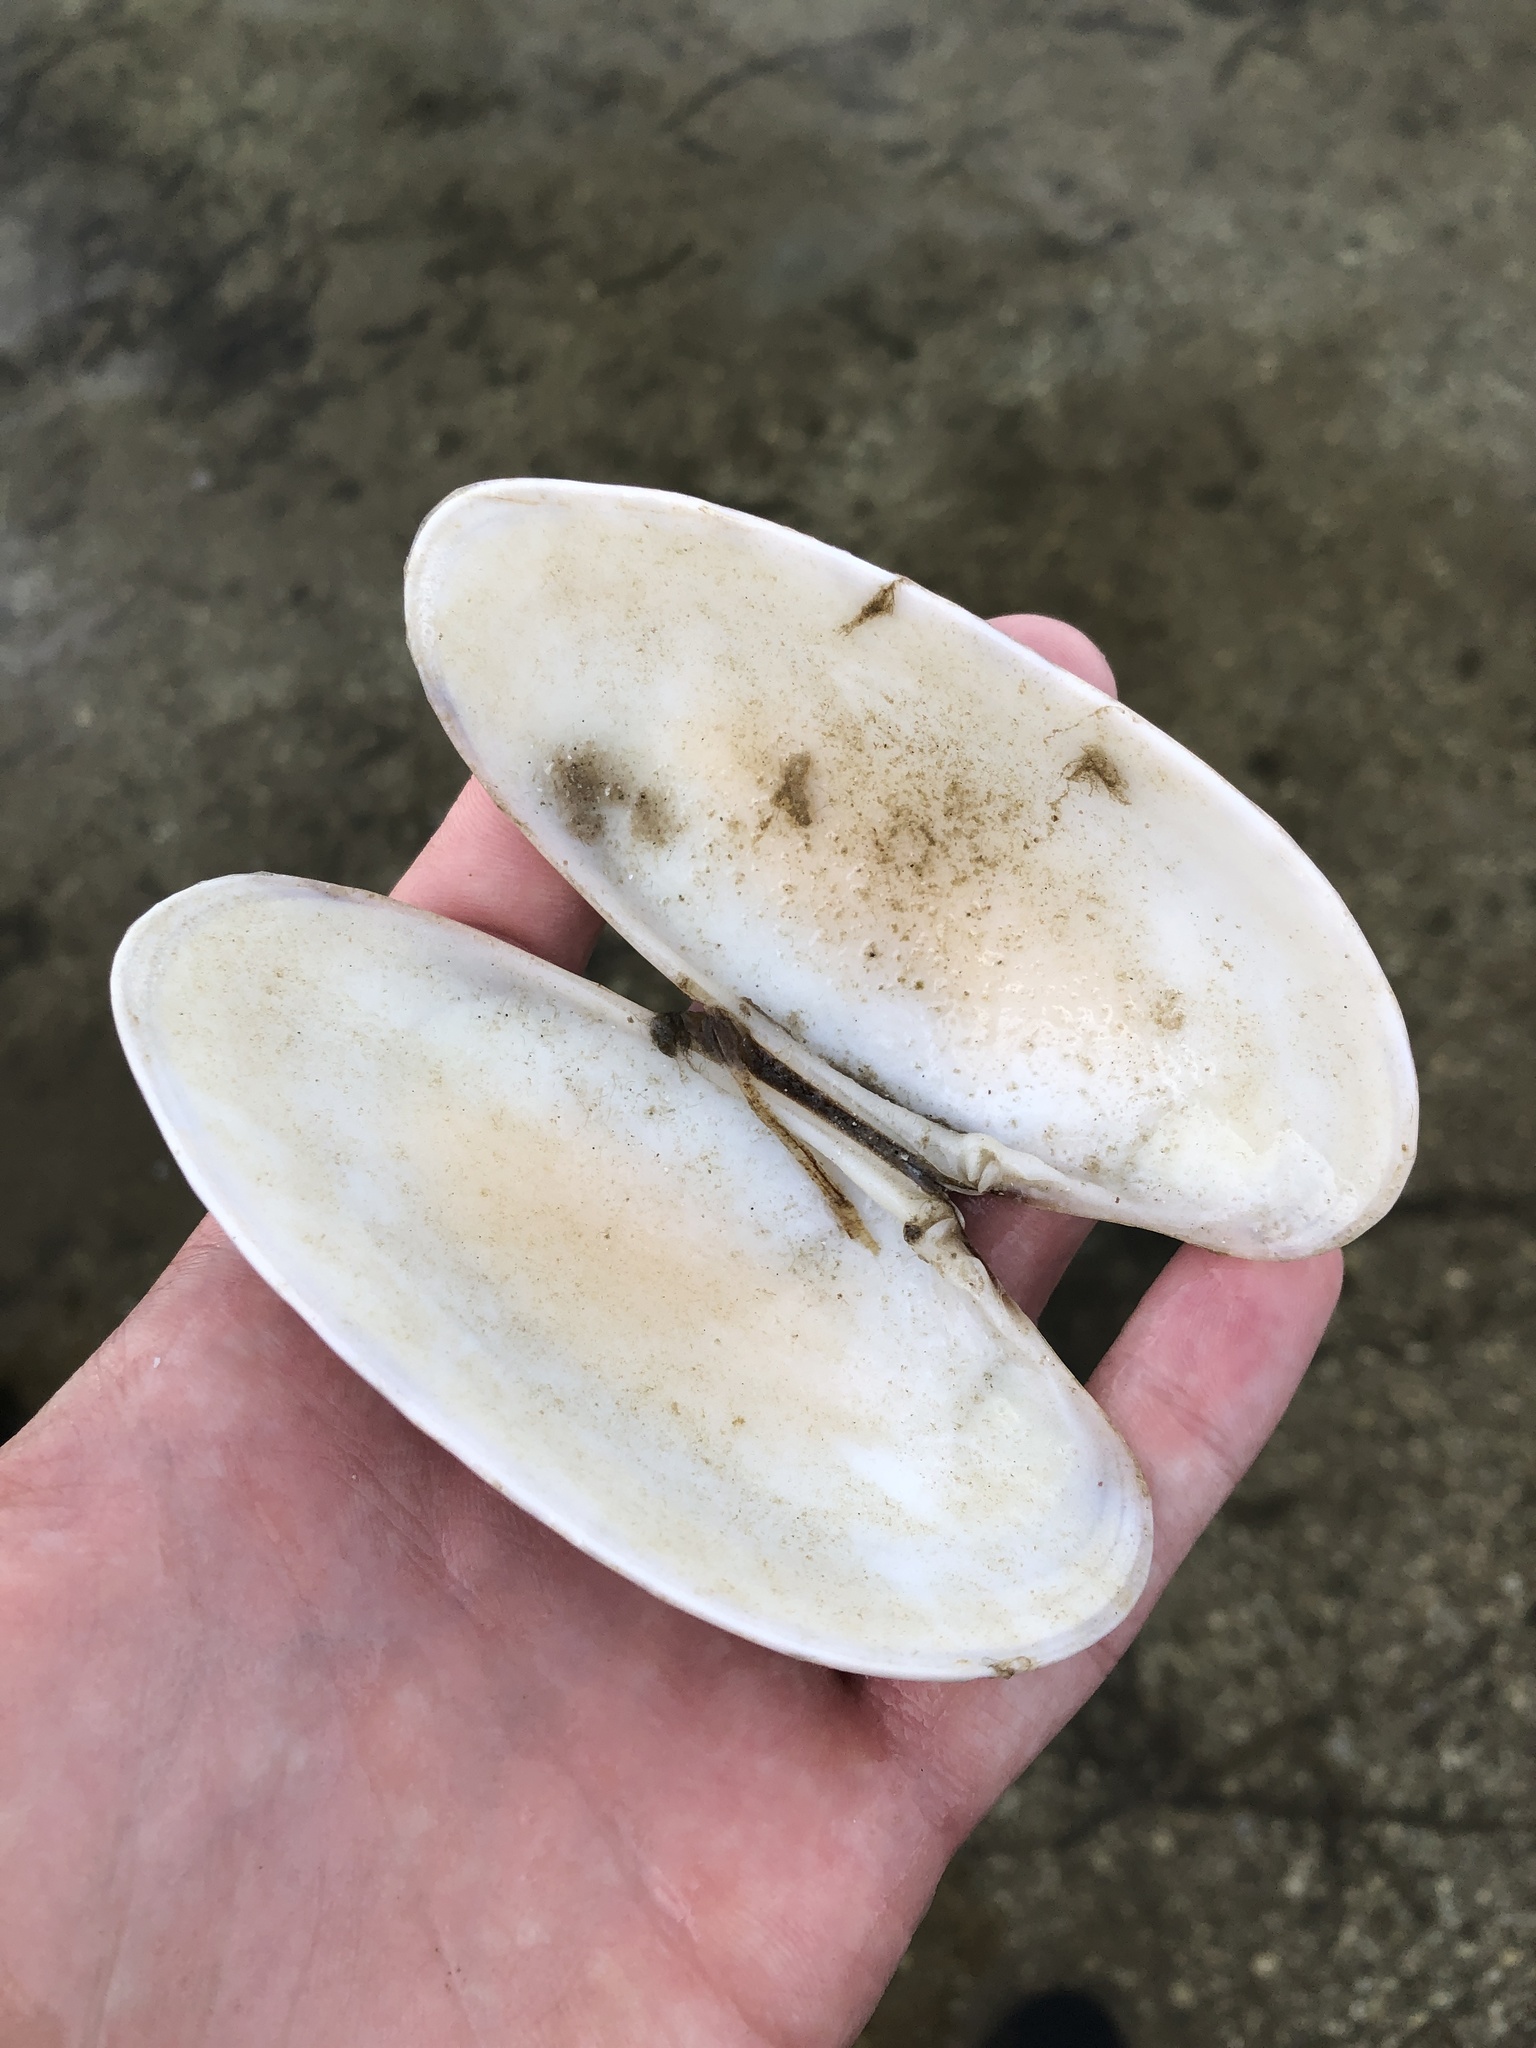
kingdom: Animalia
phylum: Mollusca
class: Bivalvia
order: Venerida
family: Veneridae
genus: Macrocallista
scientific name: Macrocallista nimbosa
